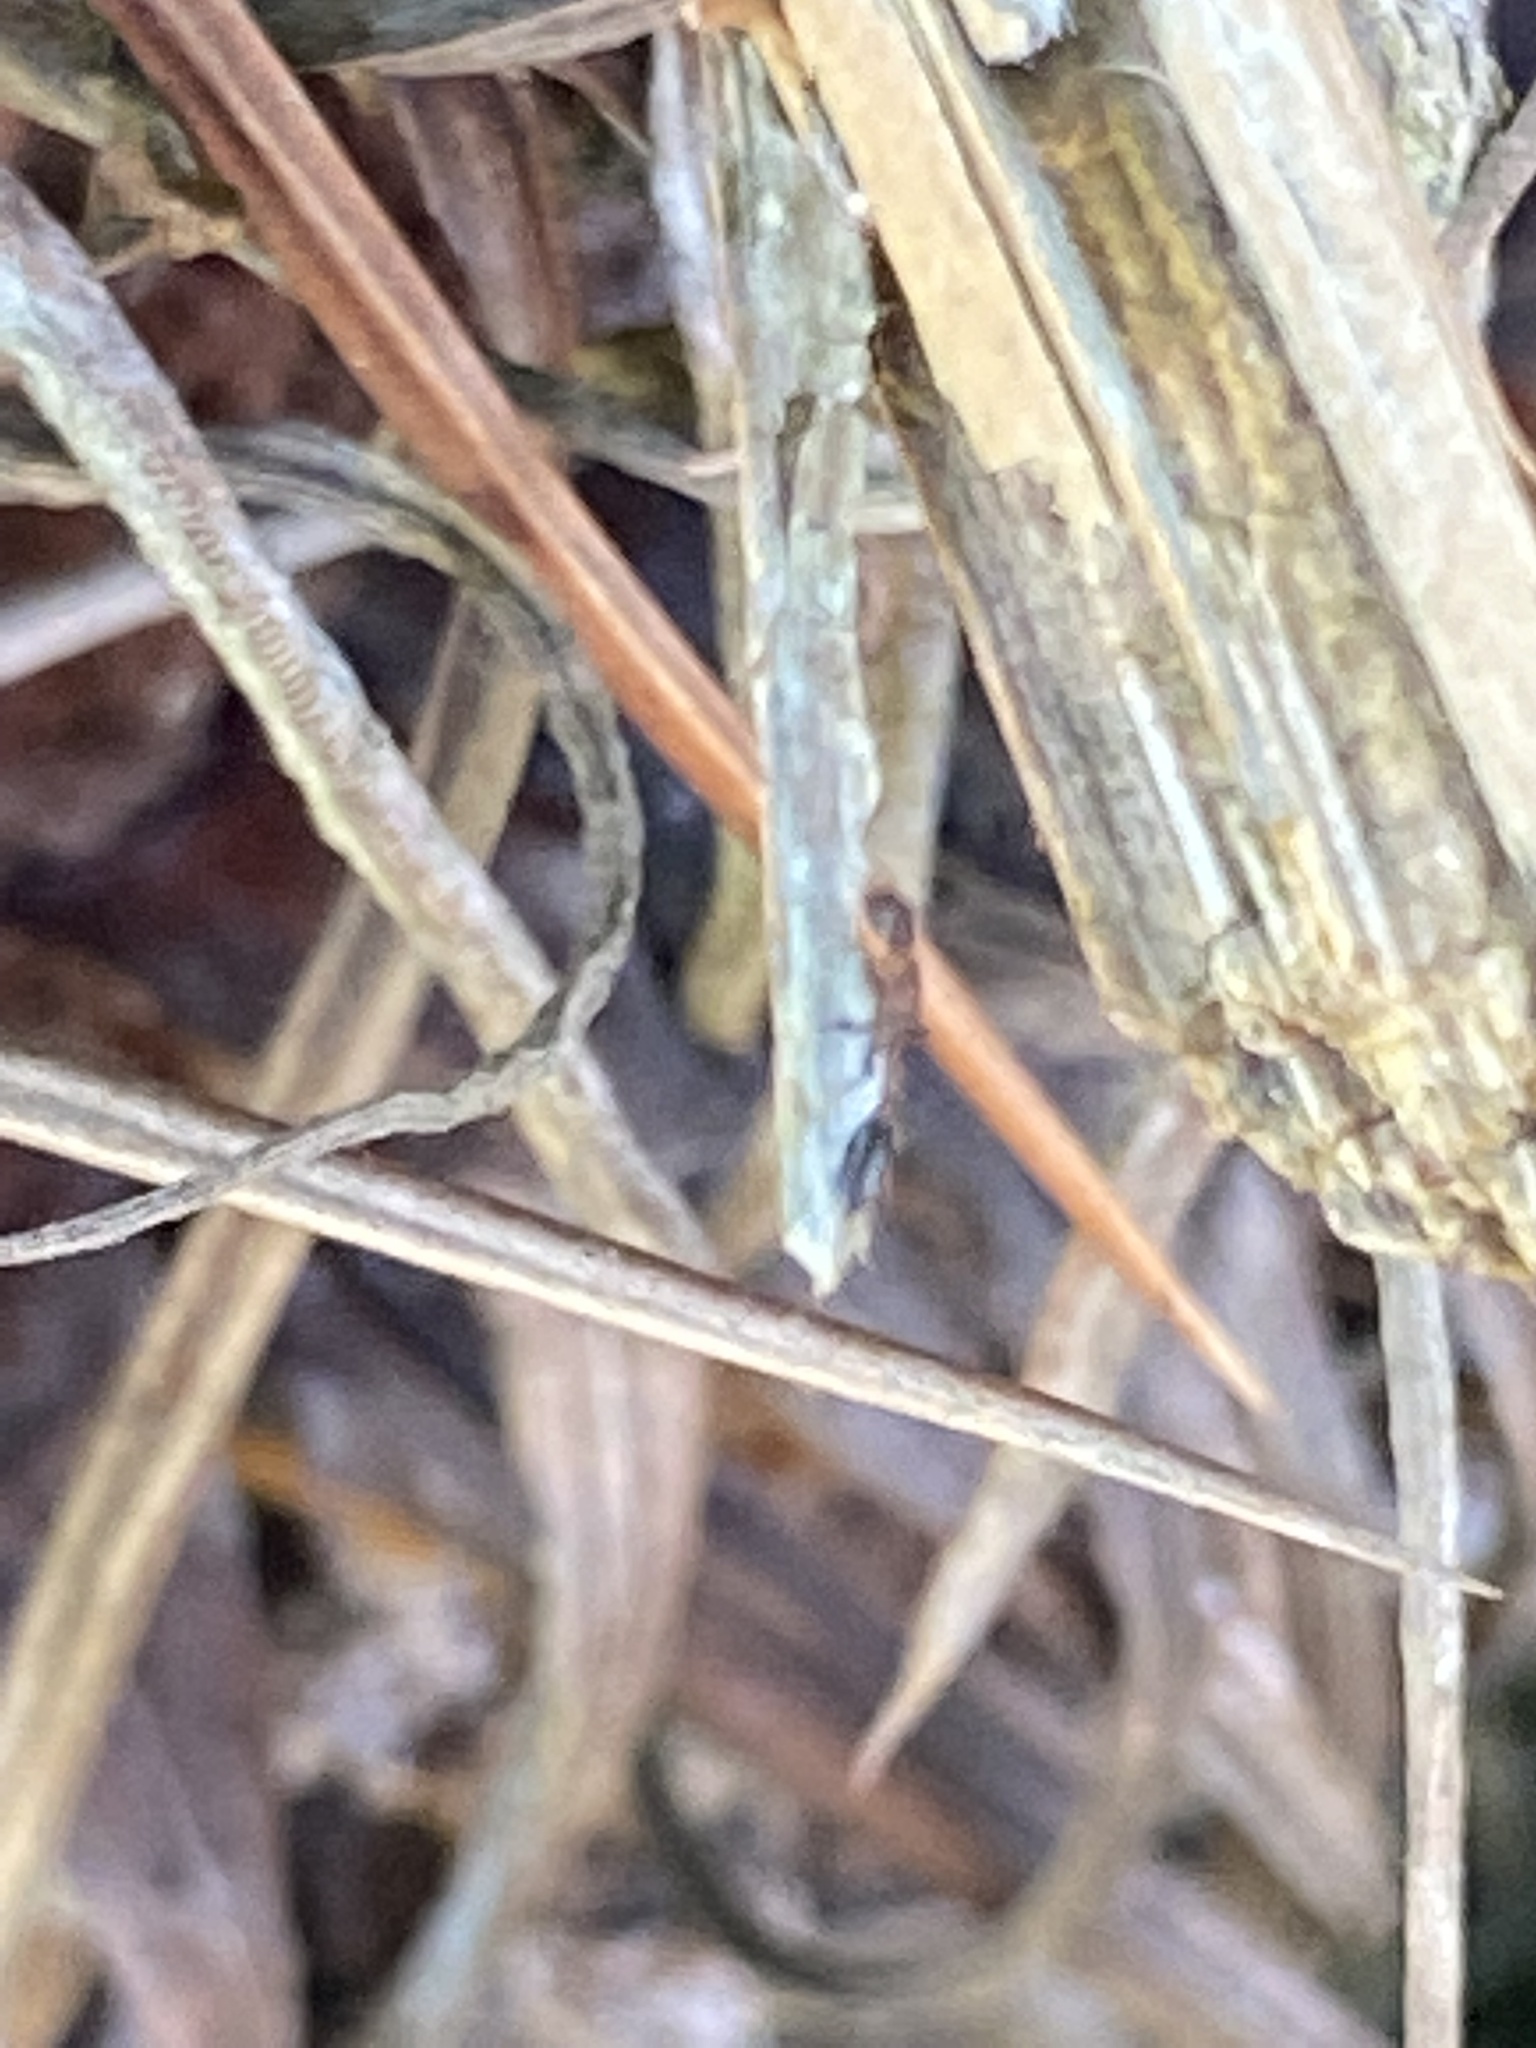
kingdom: Animalia
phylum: Arthropoda
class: Insecta
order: Hymenoptera
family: Formicidae
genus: Pseudomyrmex
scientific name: Pseudomyrmex ejectus
